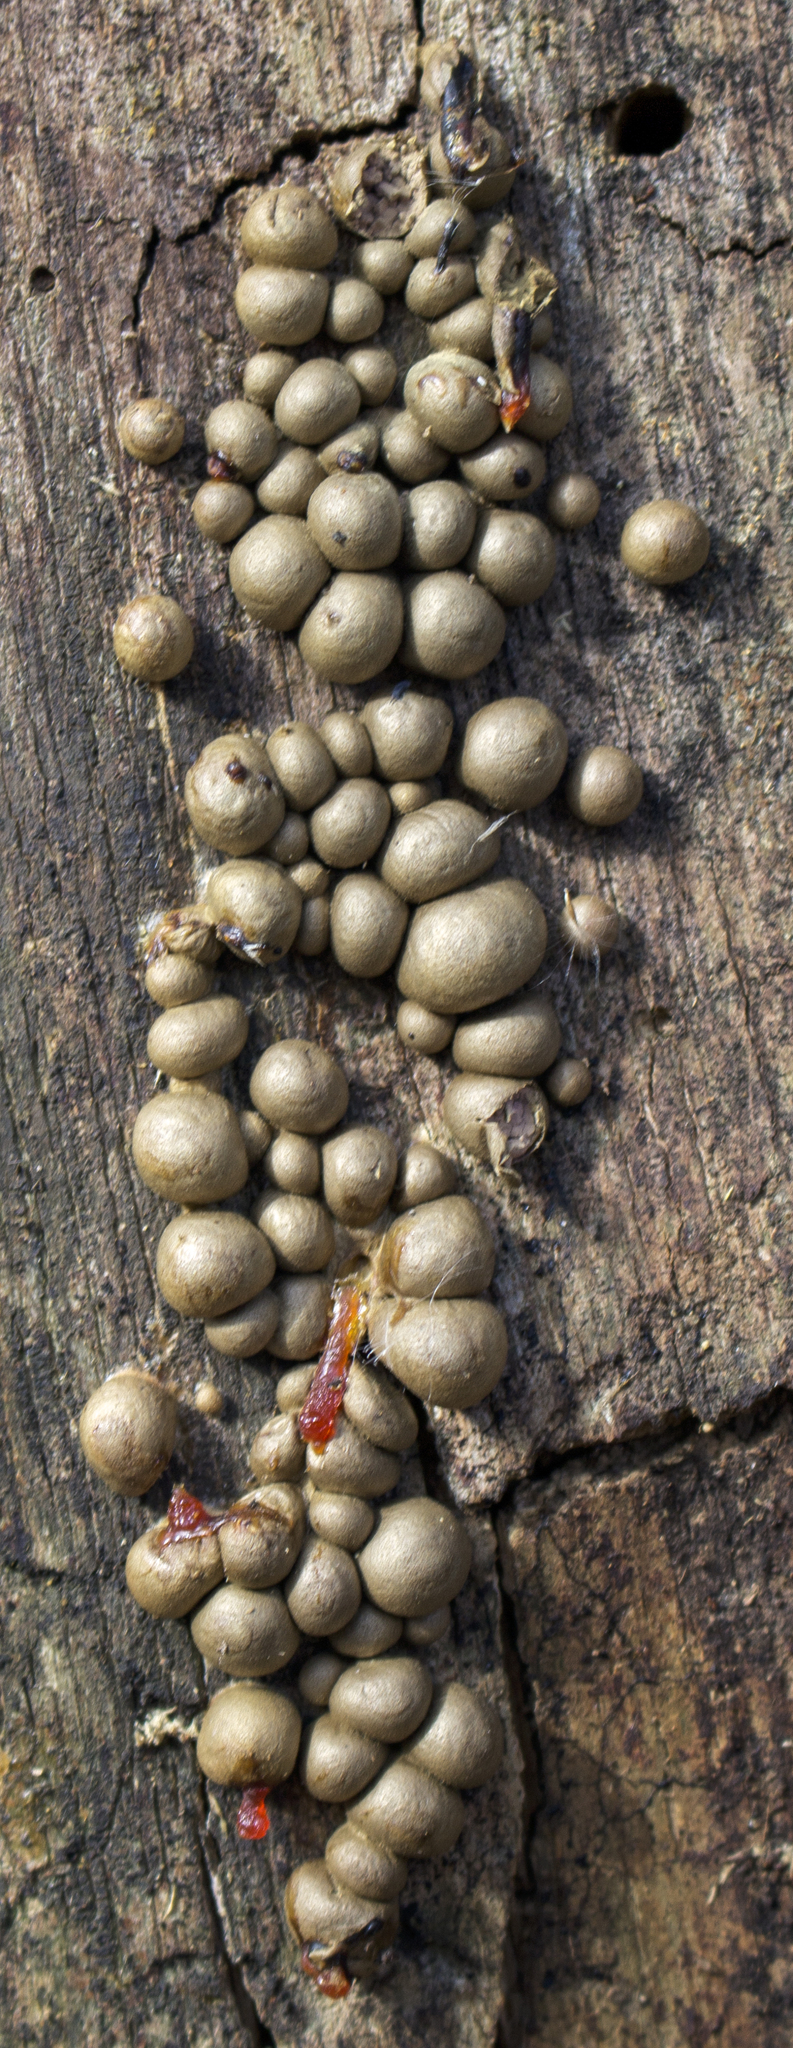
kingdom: Protozoa
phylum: Mycetozoa
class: Myxomycetes
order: Cribrariales
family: Tubiferaceae
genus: Lycogala
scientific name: Lycogala epidendrum
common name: Wolf's milk
